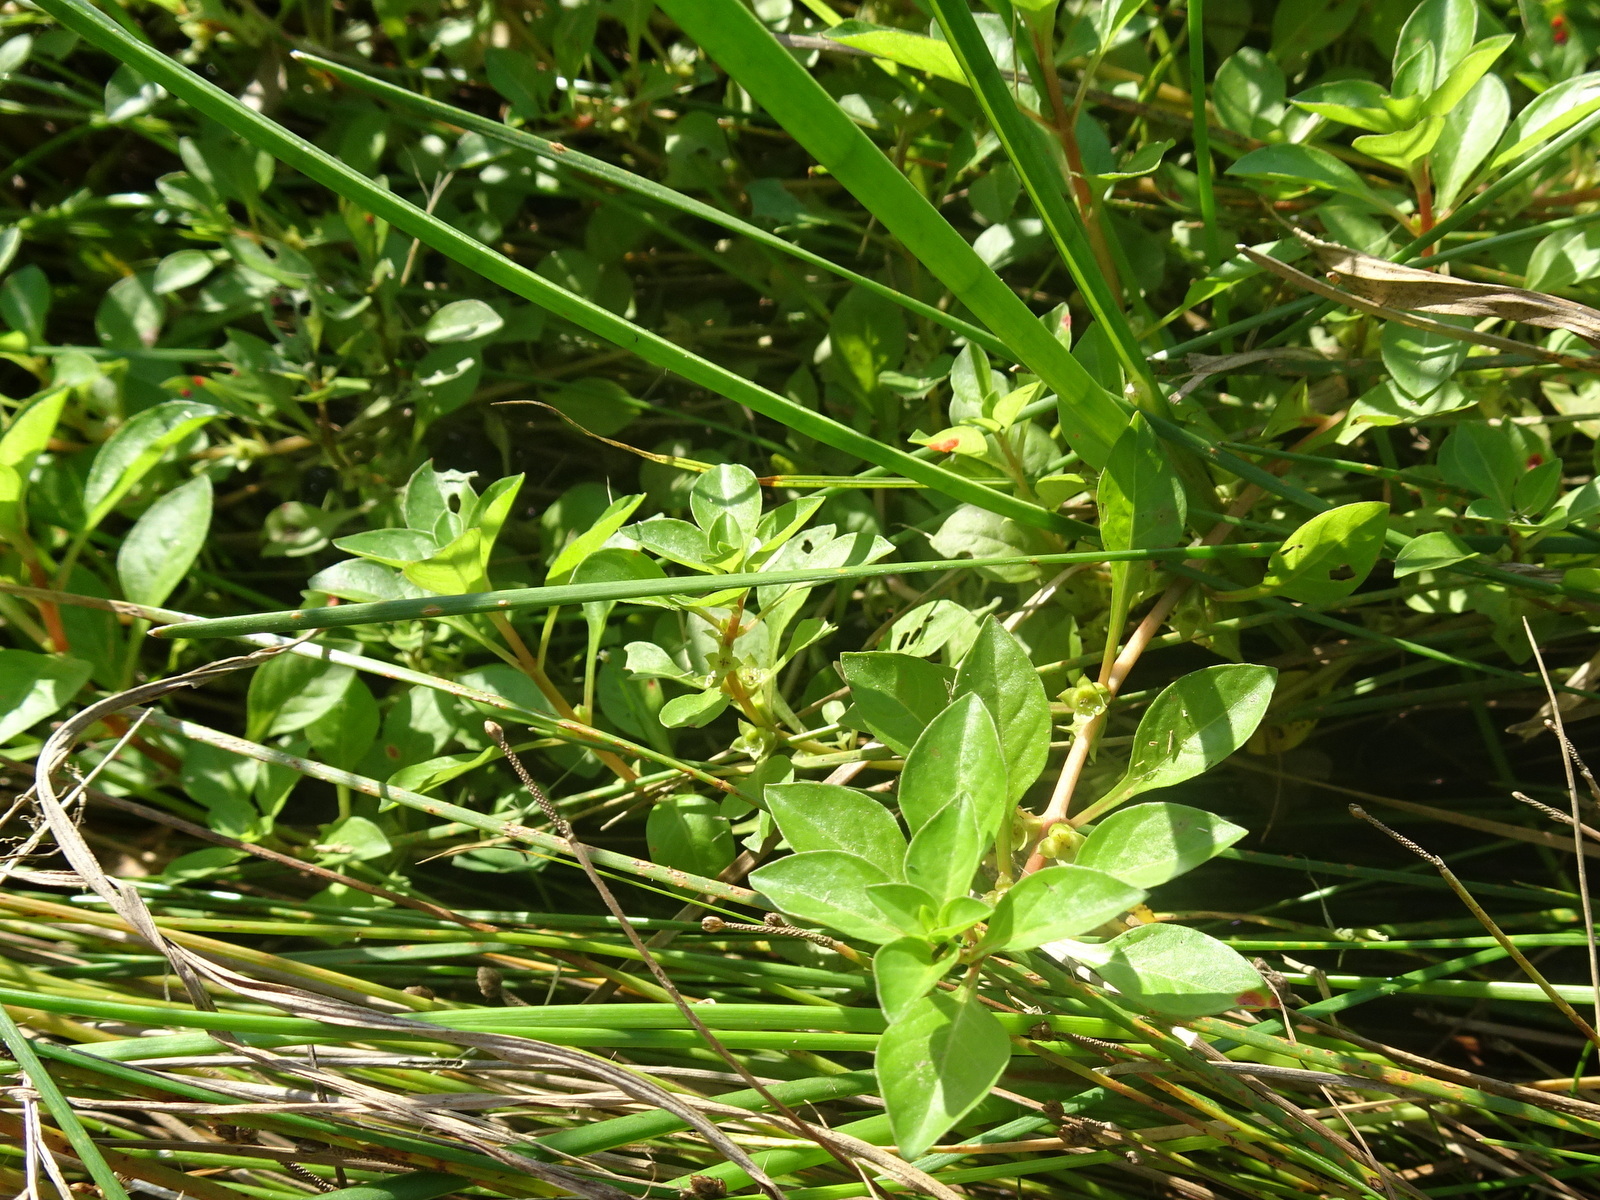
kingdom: Plantae
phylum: Tracheophyta
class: Magnoliopsida
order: Myrtales
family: Onagraceae
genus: Ludwigia
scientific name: Ludwigia palustris
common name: Hampshire-purslane
